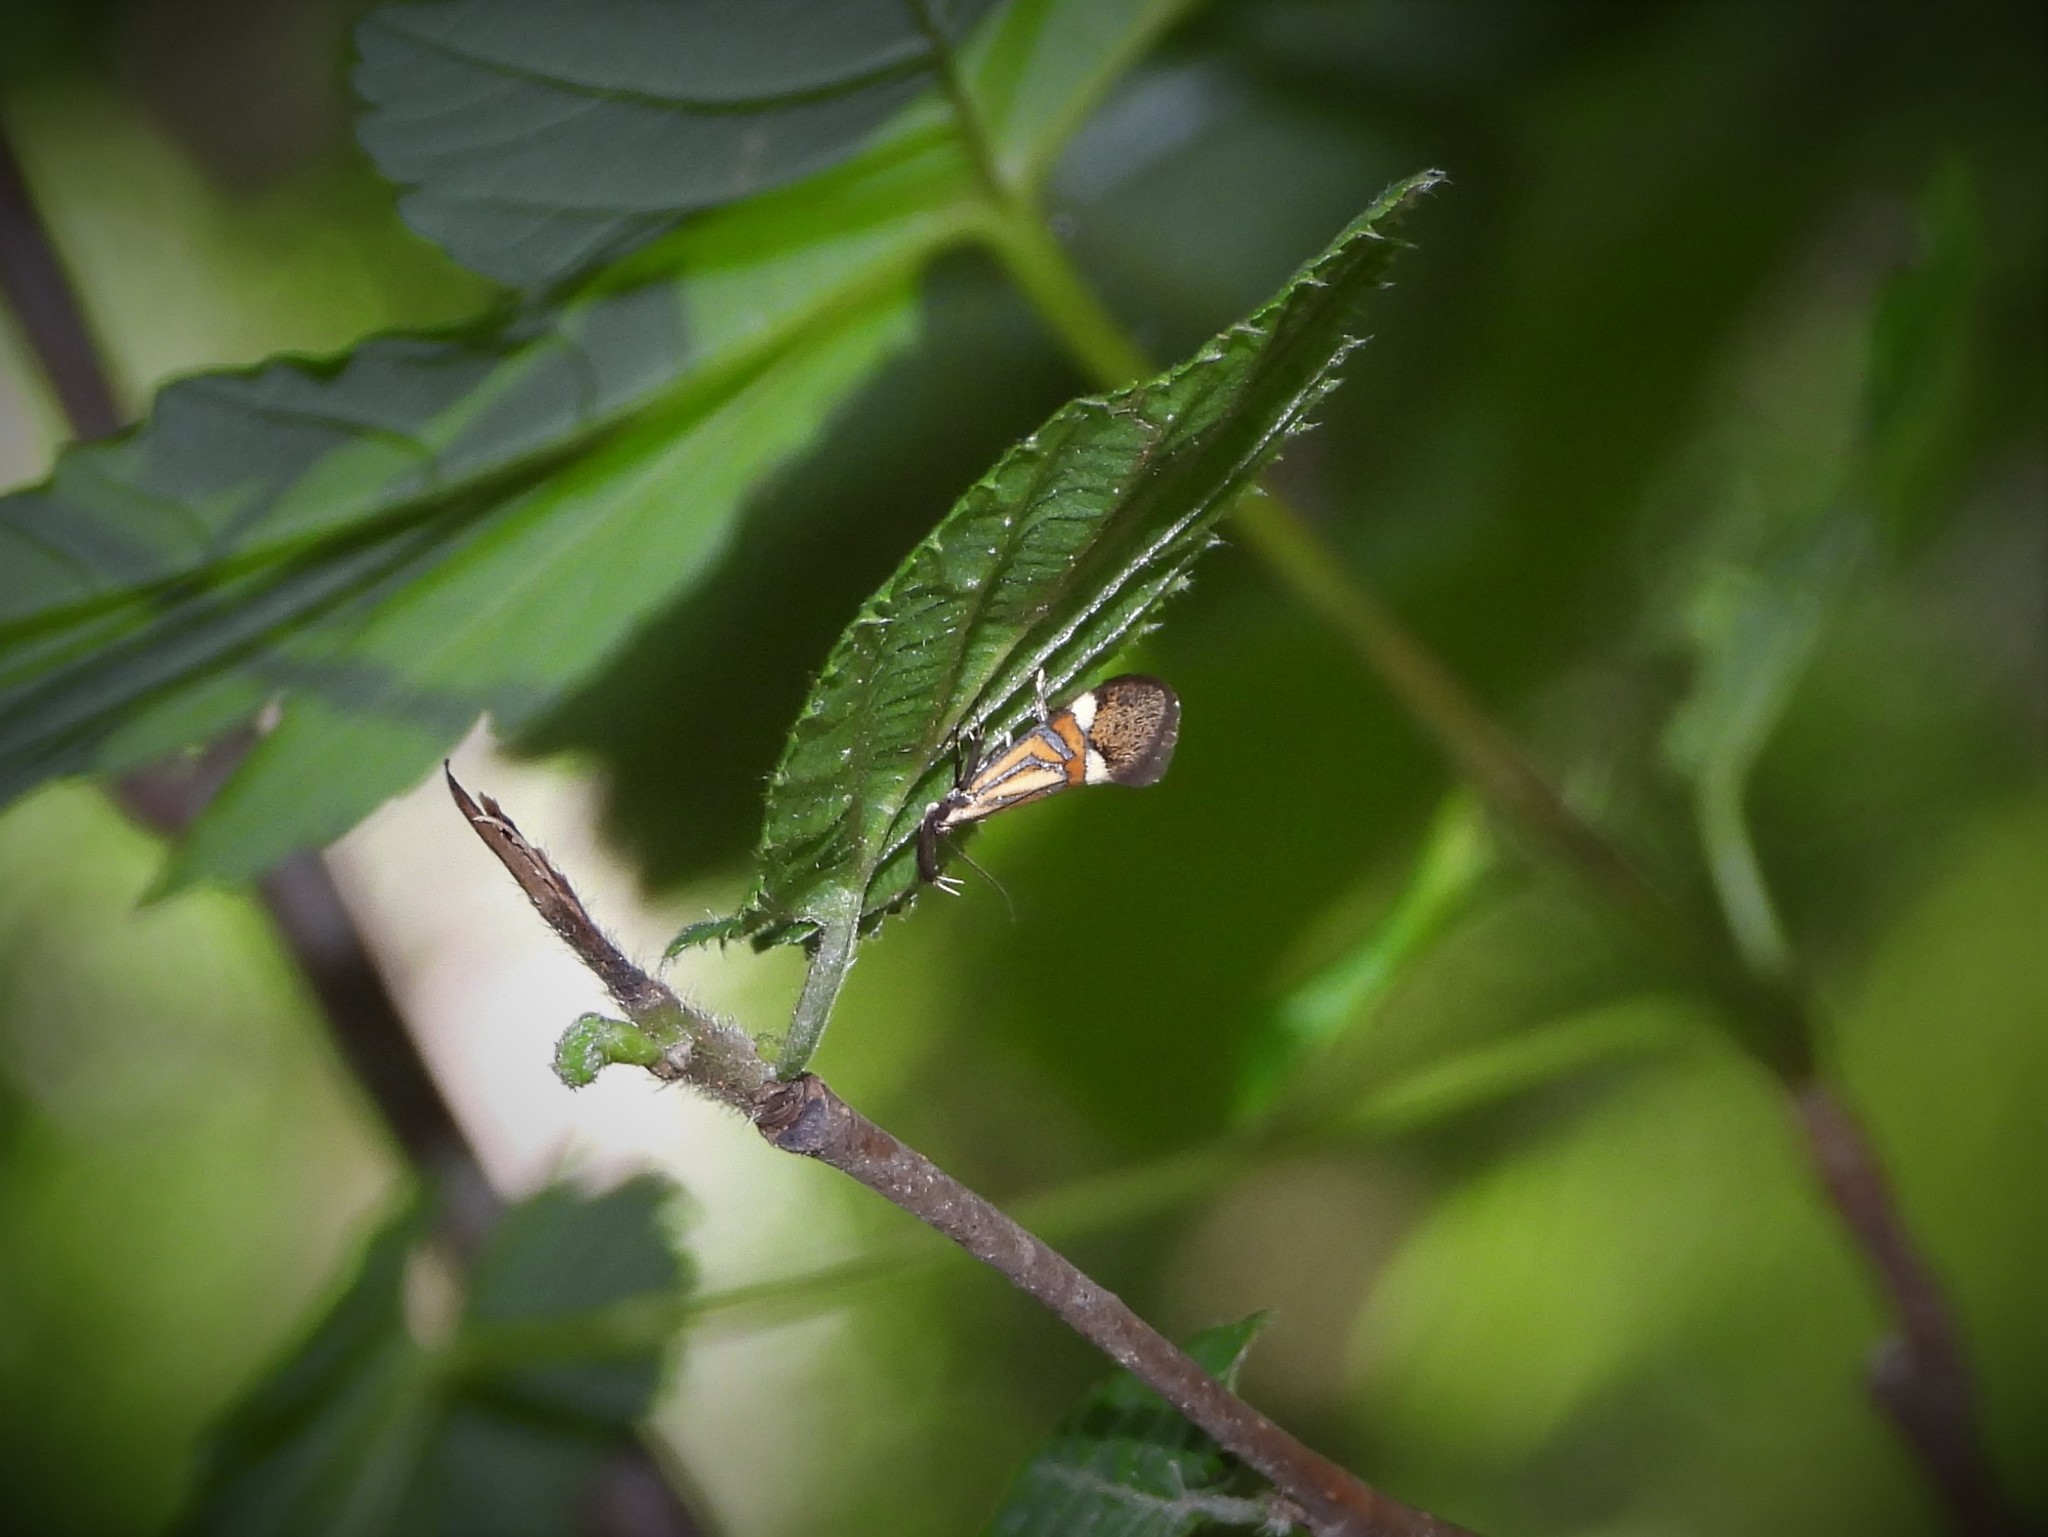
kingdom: Animalia
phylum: Arthropoda
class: Insecta
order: Lepidoptera
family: Oecophoridae
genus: Oecophora
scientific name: Oecophora staintoniella
